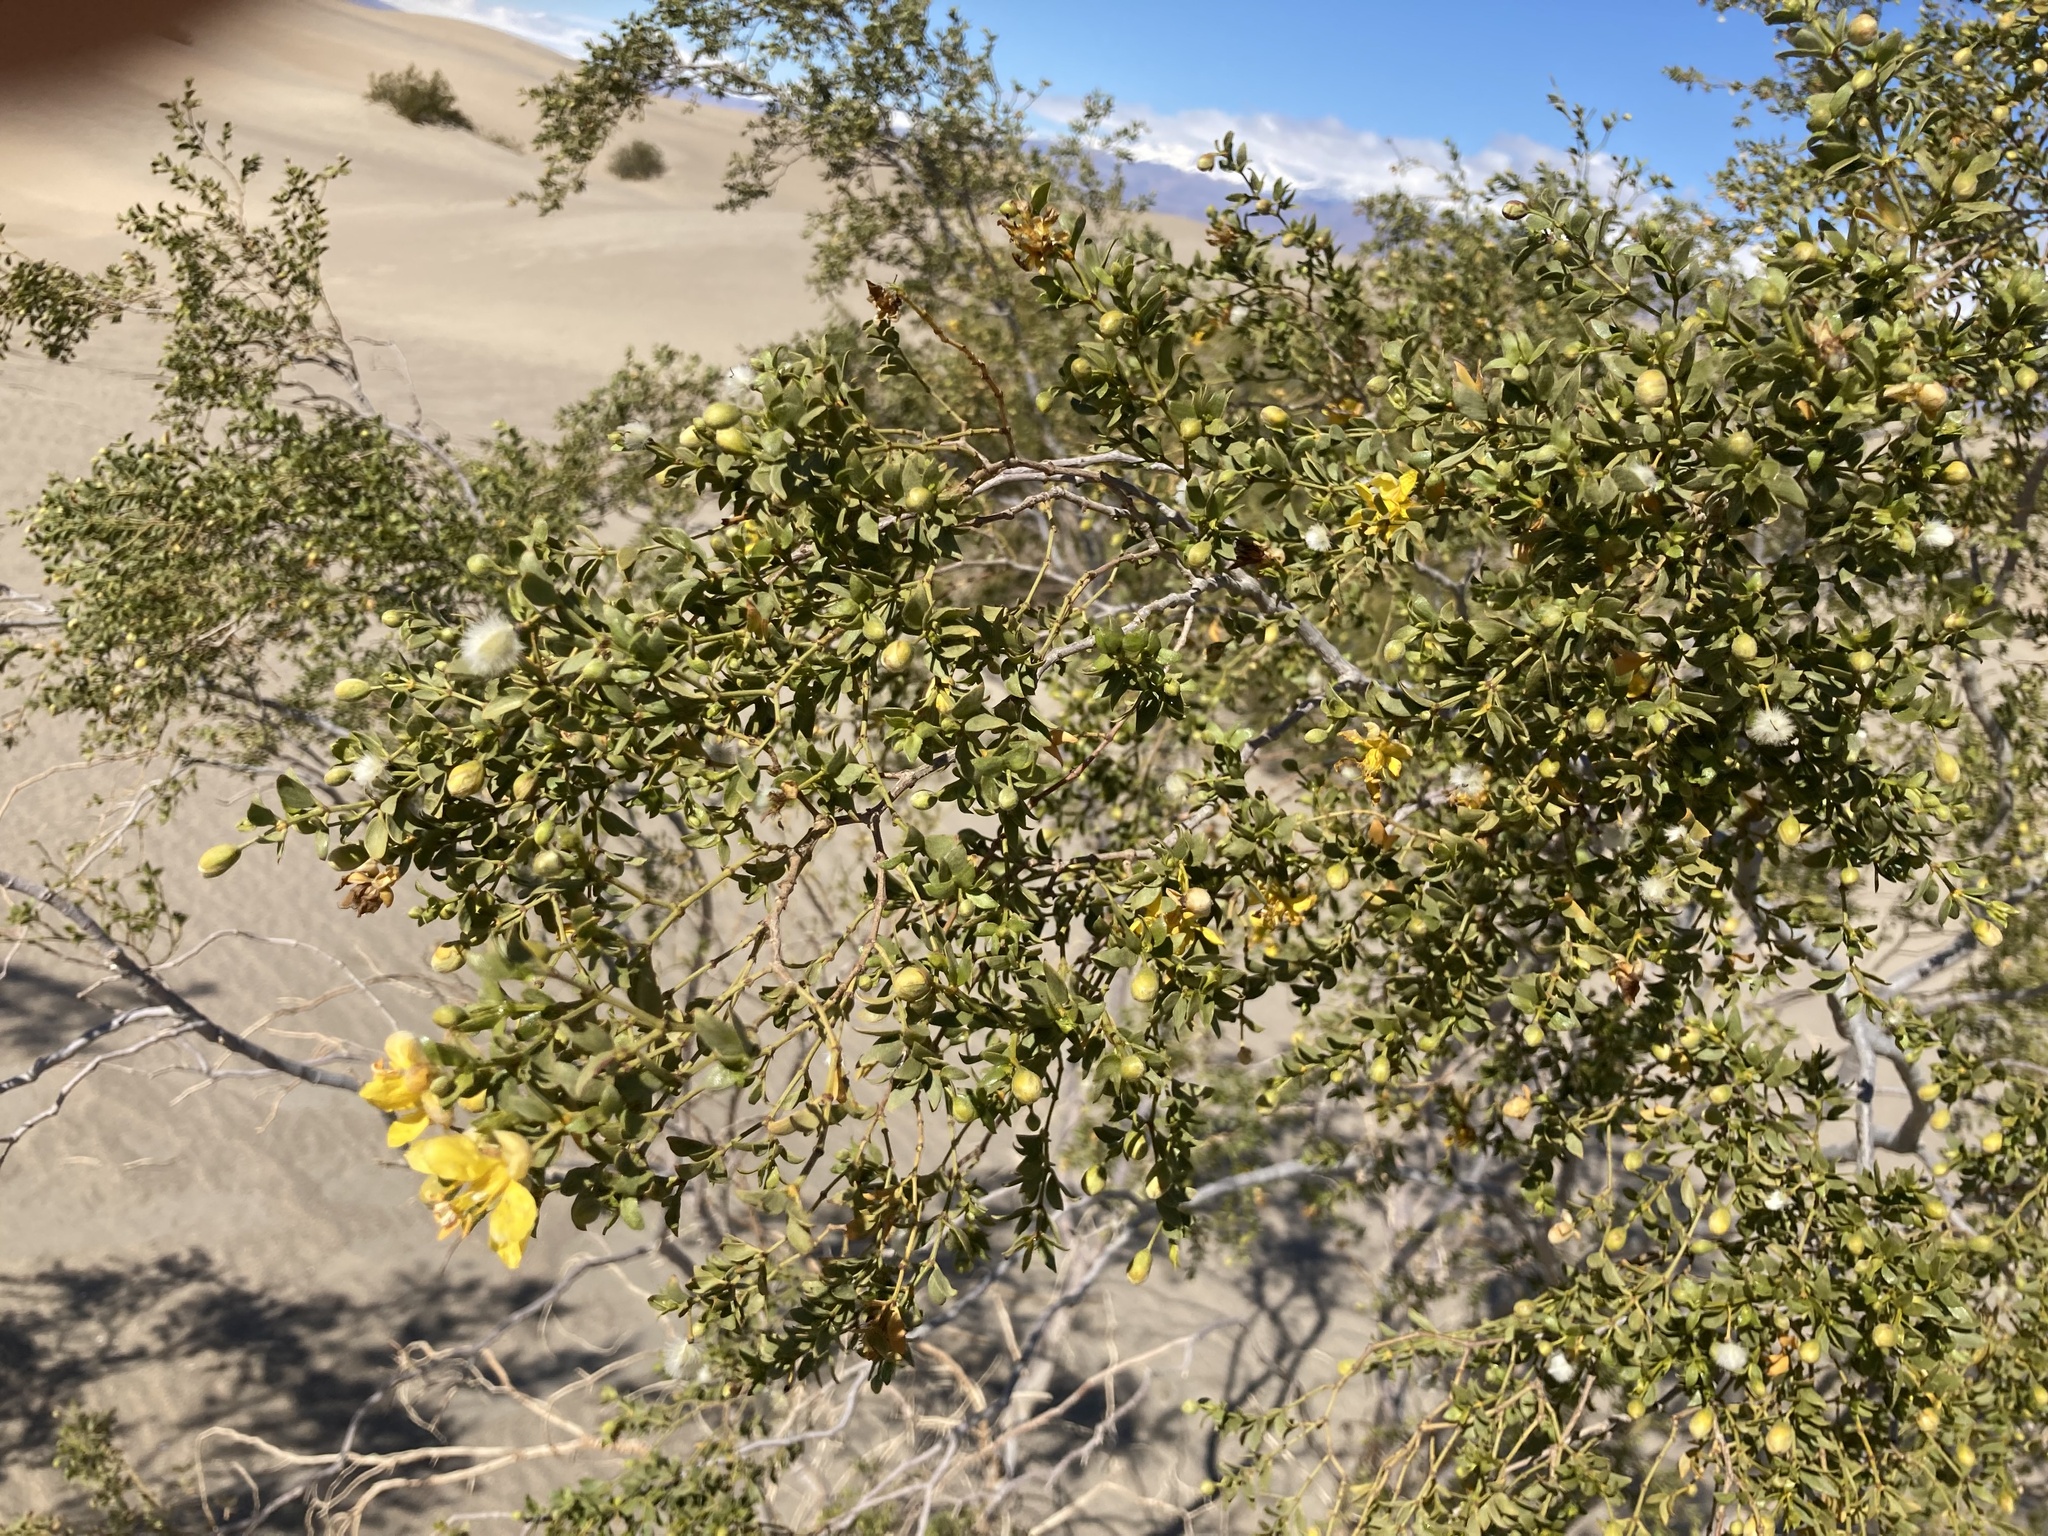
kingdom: Plantae
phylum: Tracheophyta
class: Magnoliopsida
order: Zygophyllales
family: Zygophyllaceae
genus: Larrea
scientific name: Larrea tridentata
